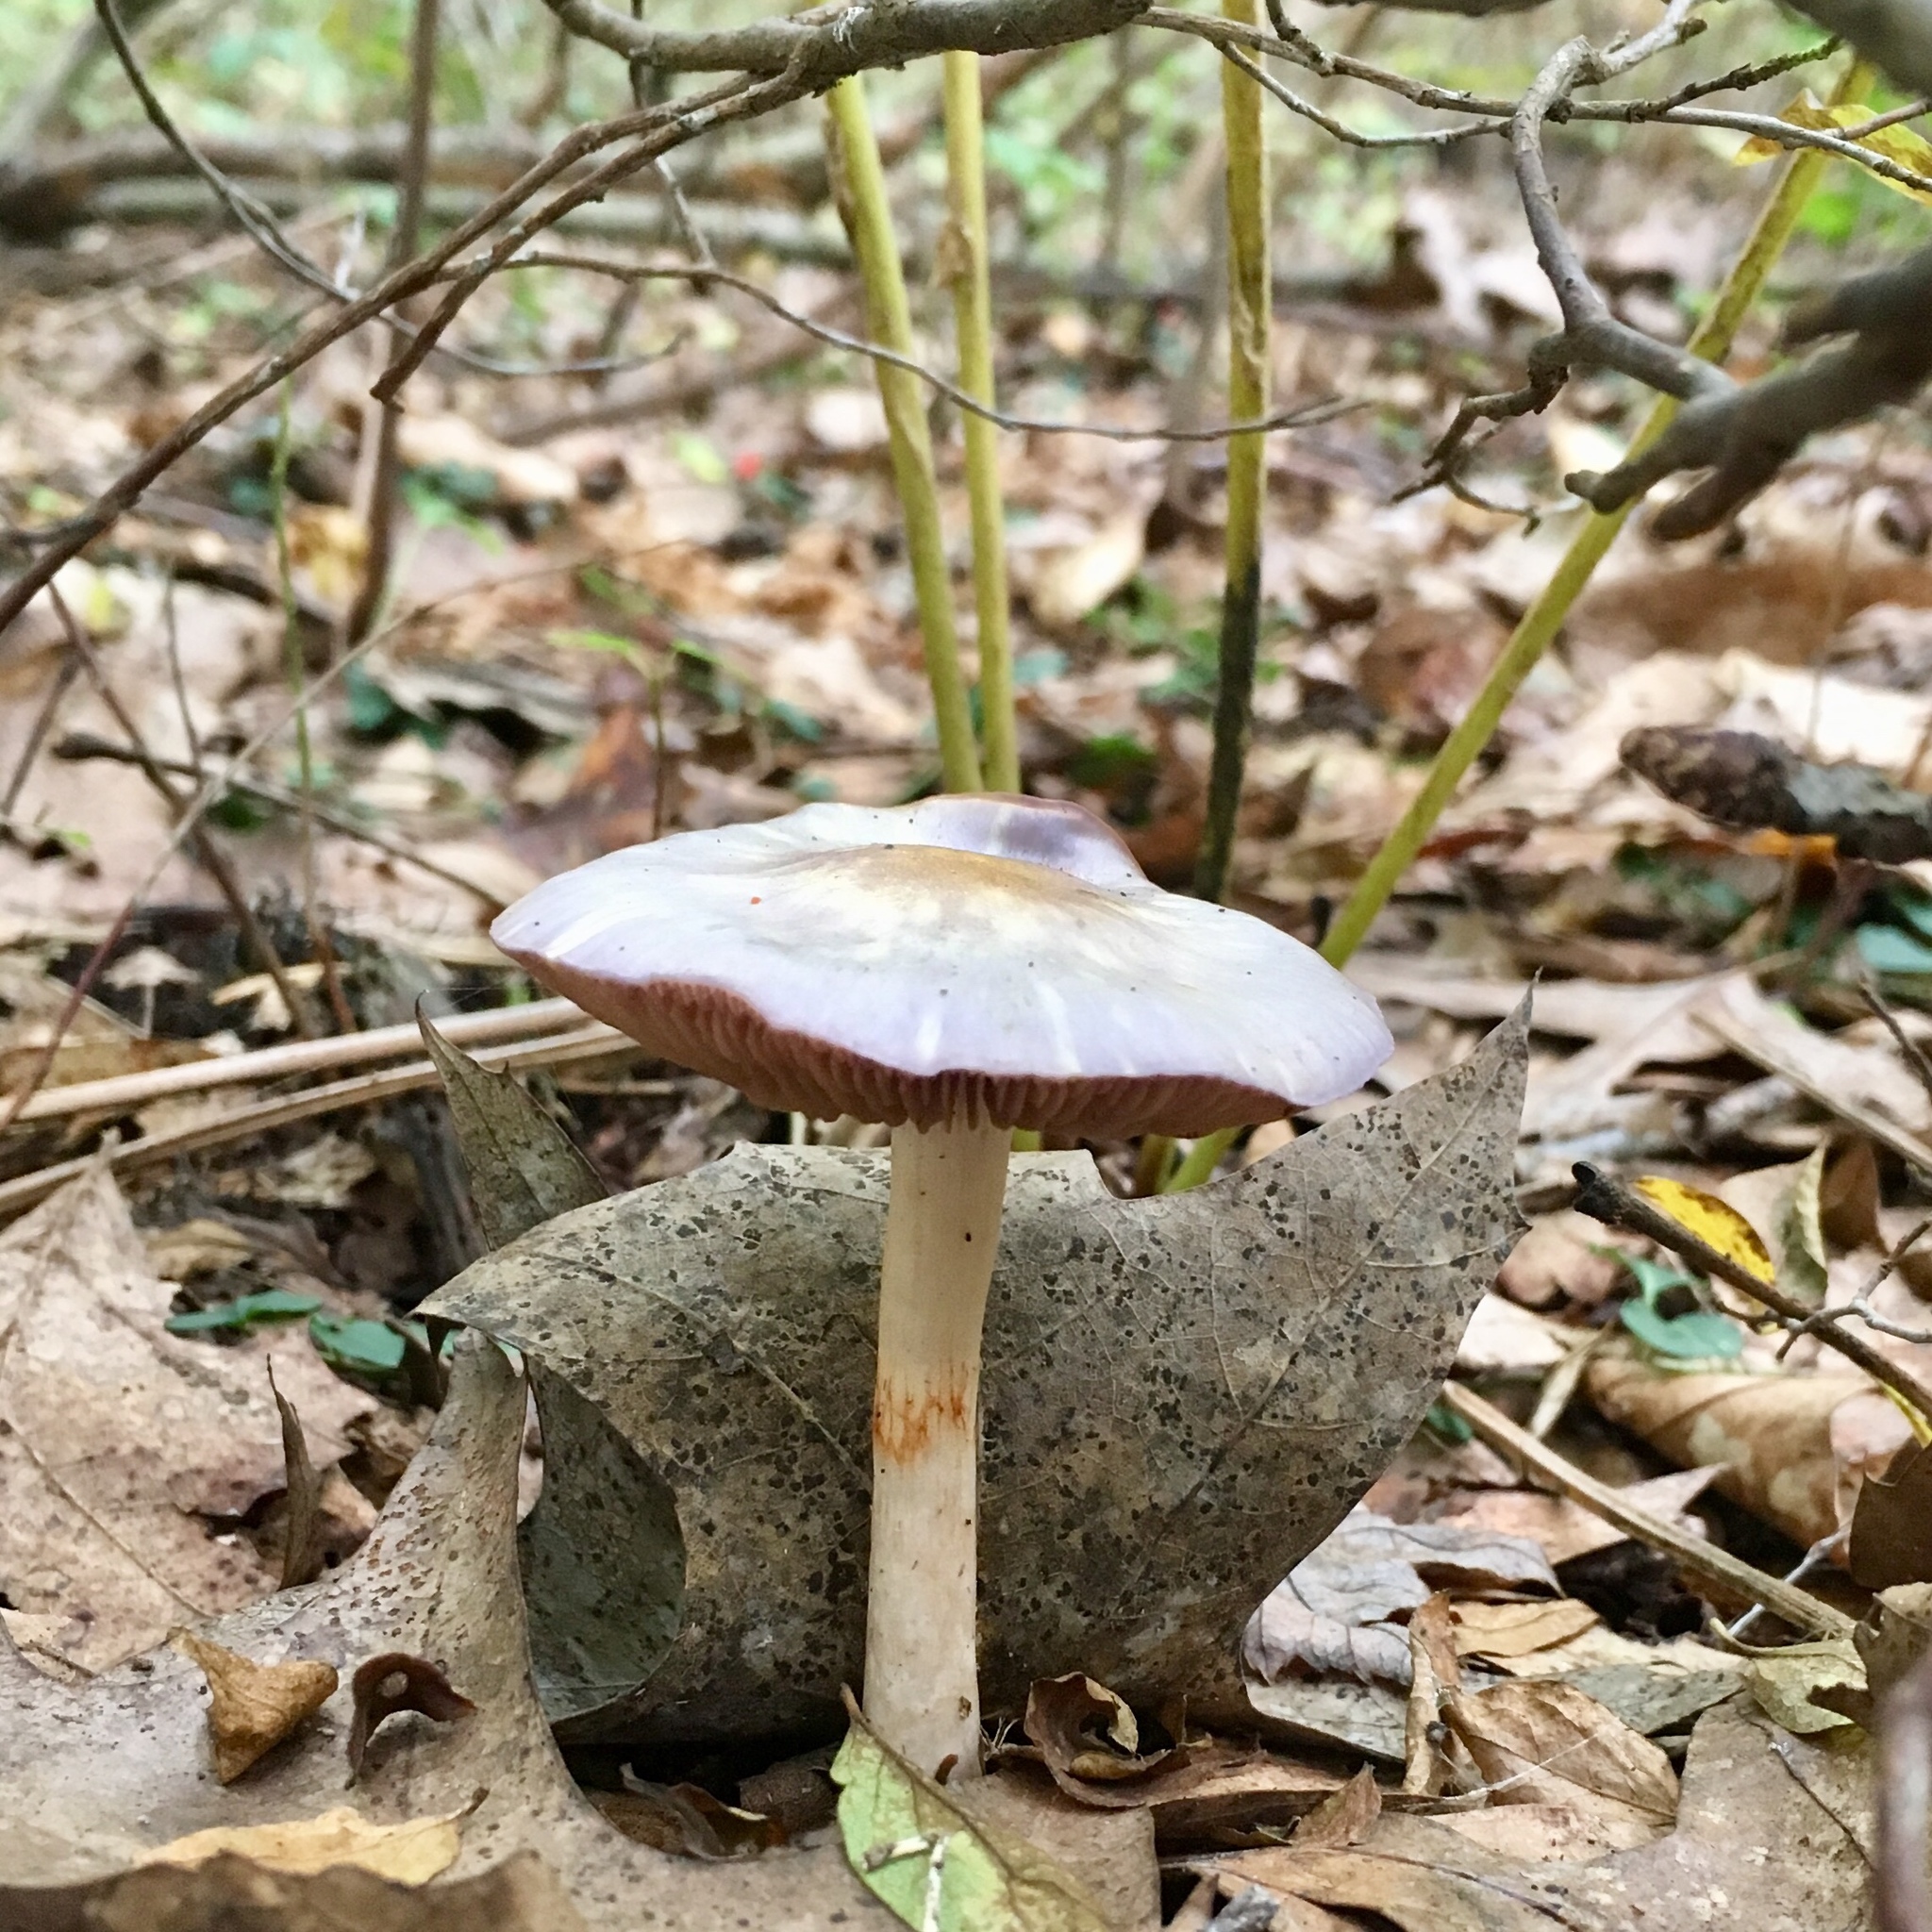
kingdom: Fungi
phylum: Basidiomycota
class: Agaricomycetes
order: Agaricales
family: Cortinariaceae
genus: Cortinarius
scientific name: Cortinarius iodes
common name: Viscid violet cort
